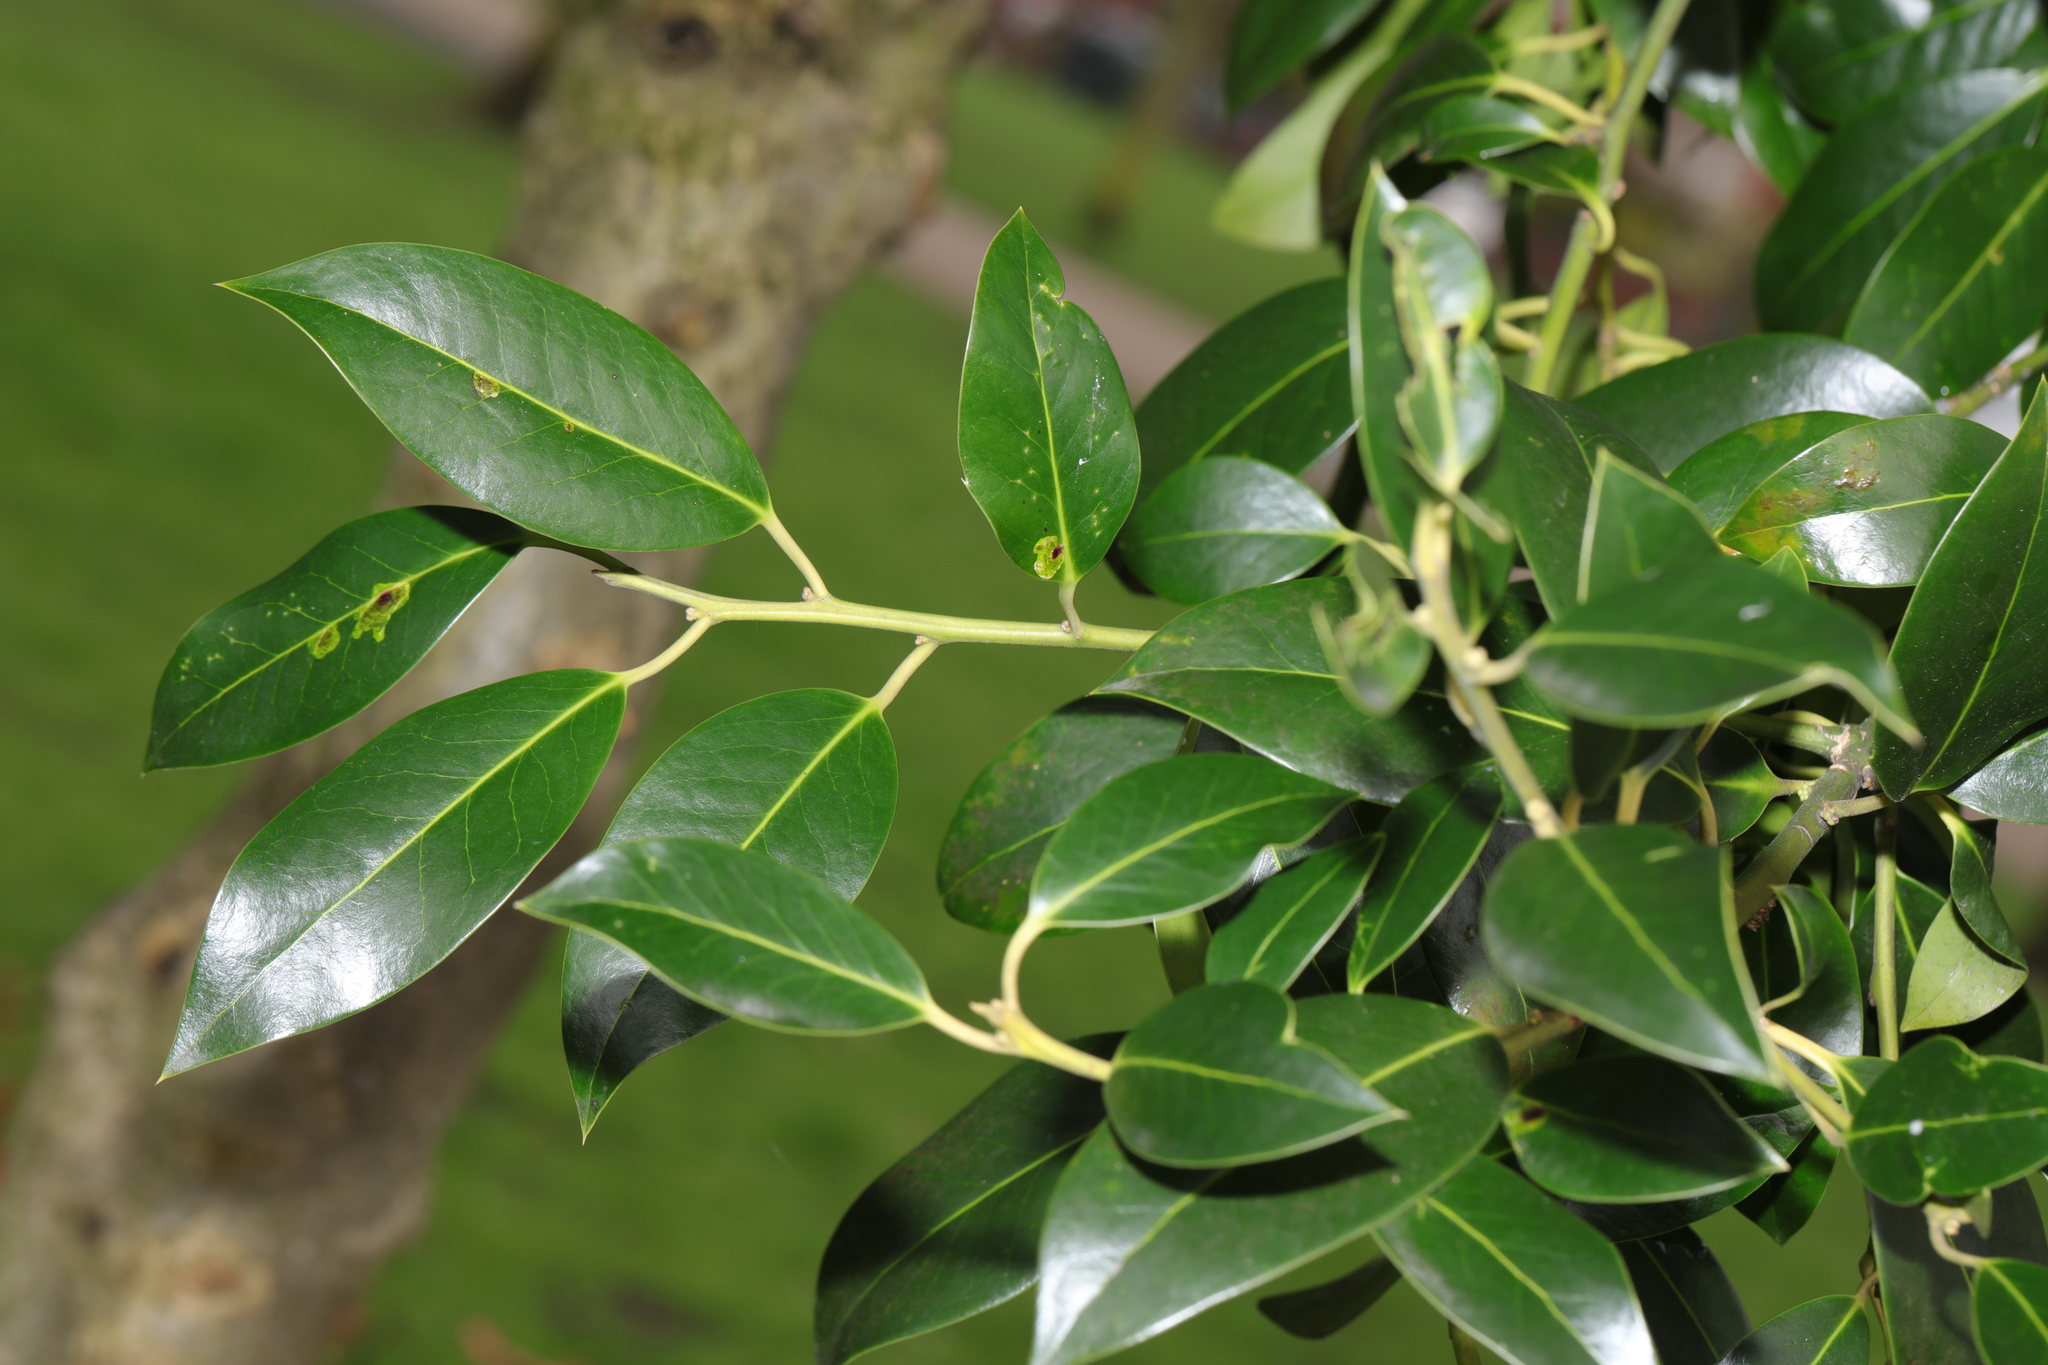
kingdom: Plantae
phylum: Tracheophyta
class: Magnoliopsida
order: Aquifoliales
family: Aquifoliaceae
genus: Ilex
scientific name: Ilex altaclerensis
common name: Highclere holly
